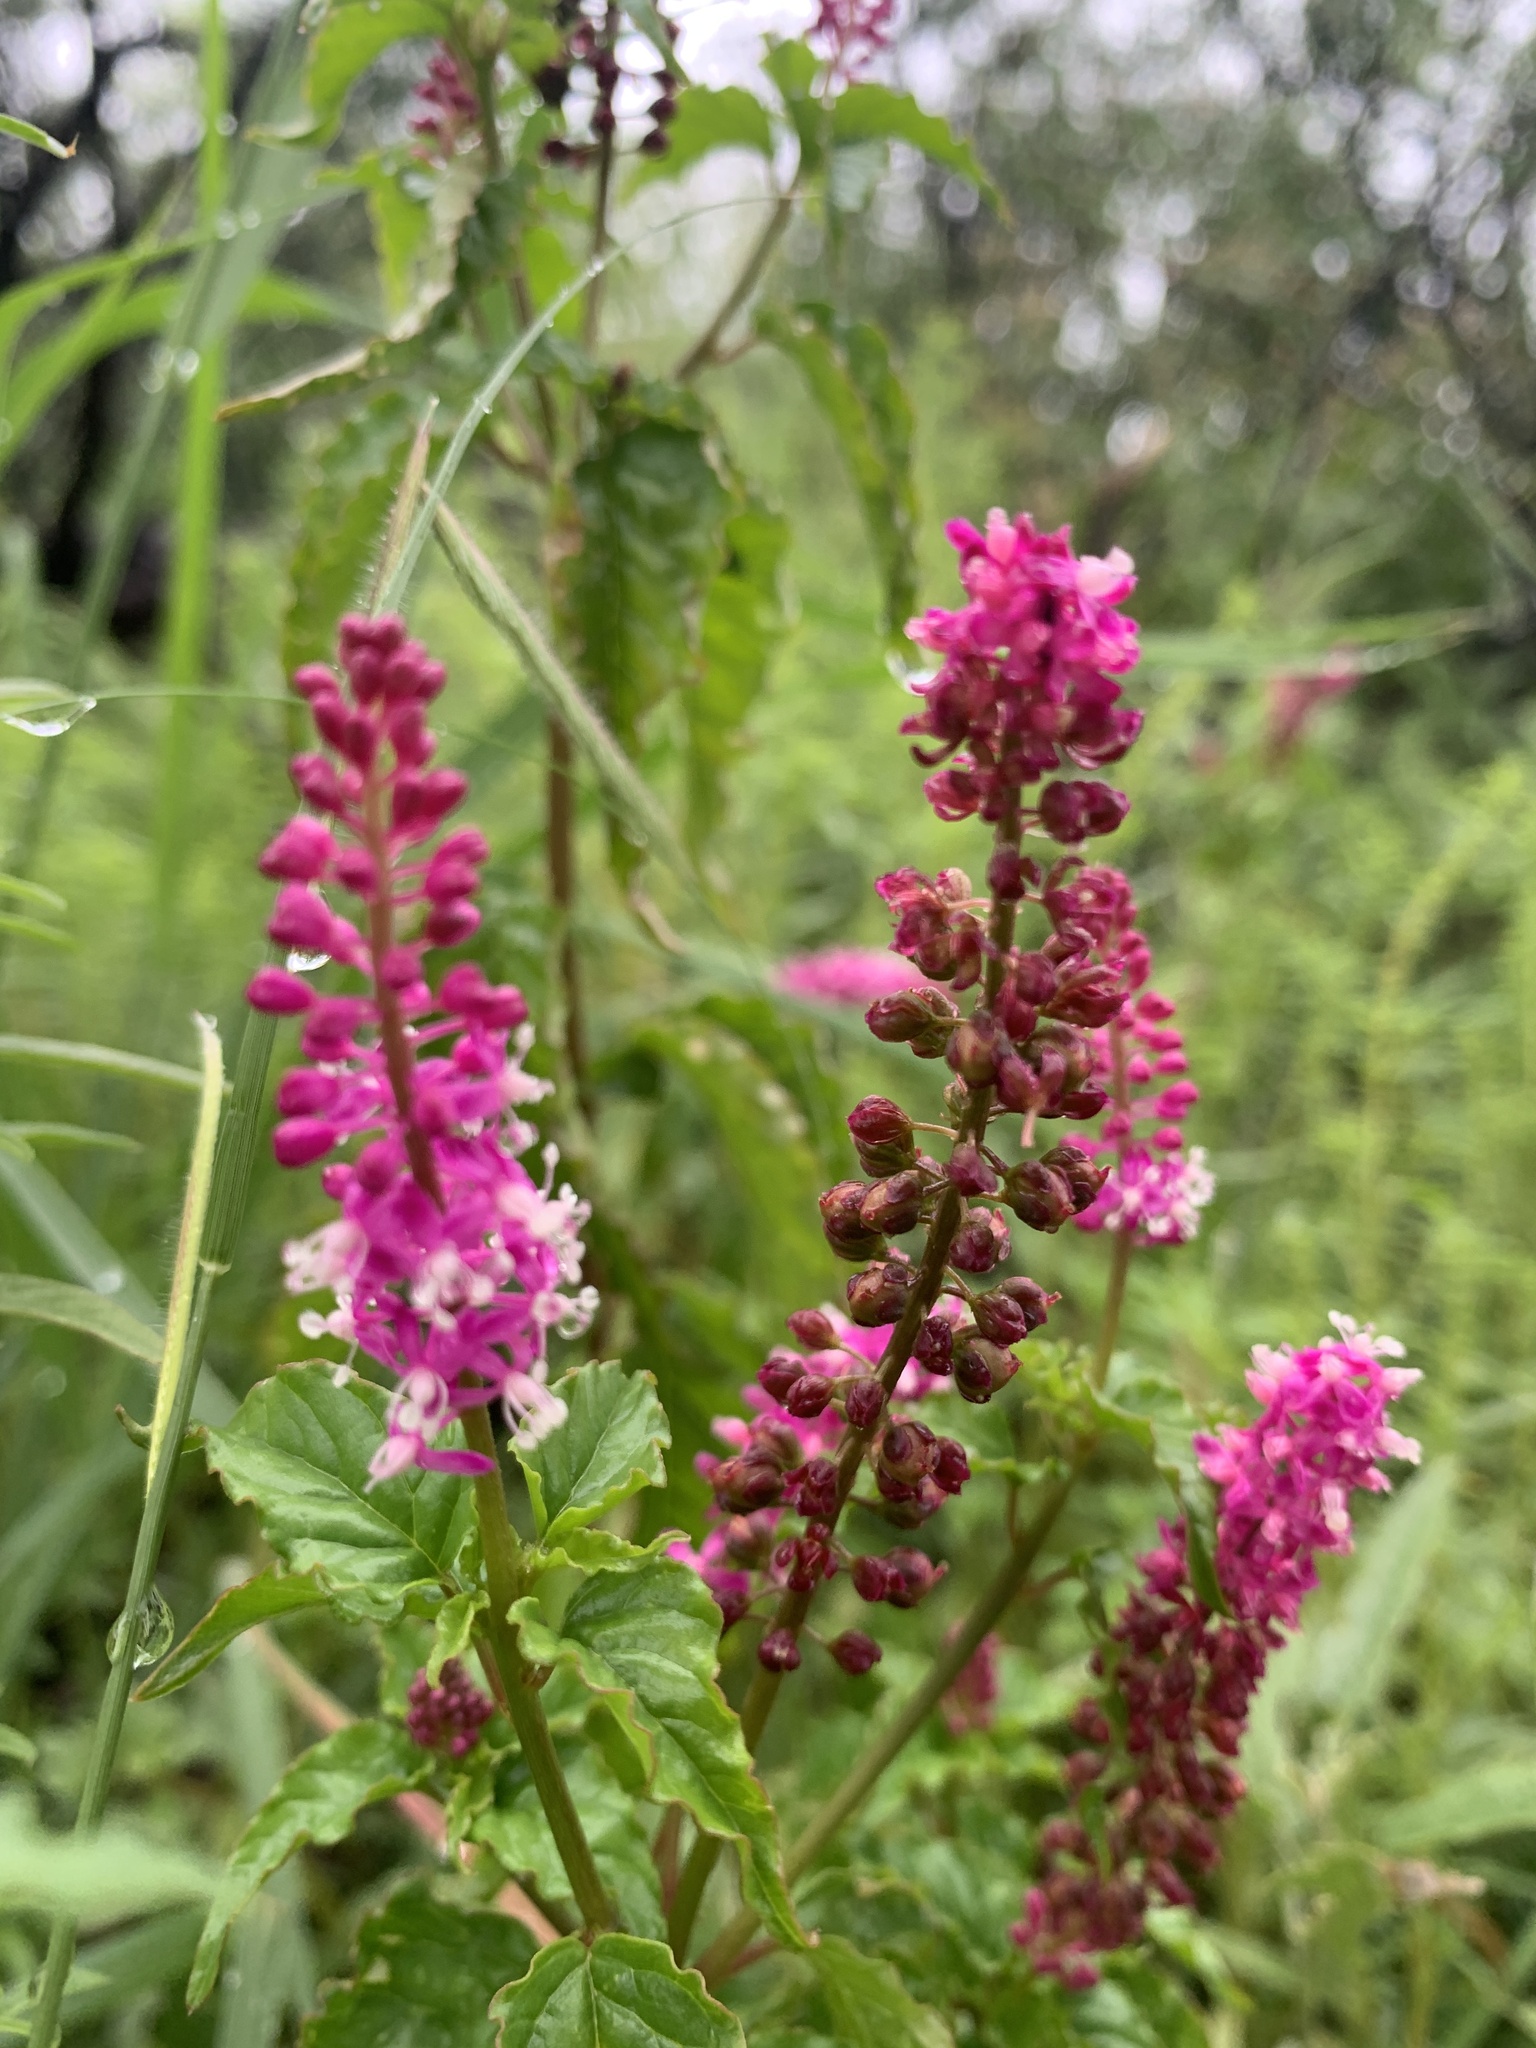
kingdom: Plantae
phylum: Tracheophyta
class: Magnoliopsida
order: Caryophyllales
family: Phytolaccaceae
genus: Rivina
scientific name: Rivina humilis
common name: Rougeplant
